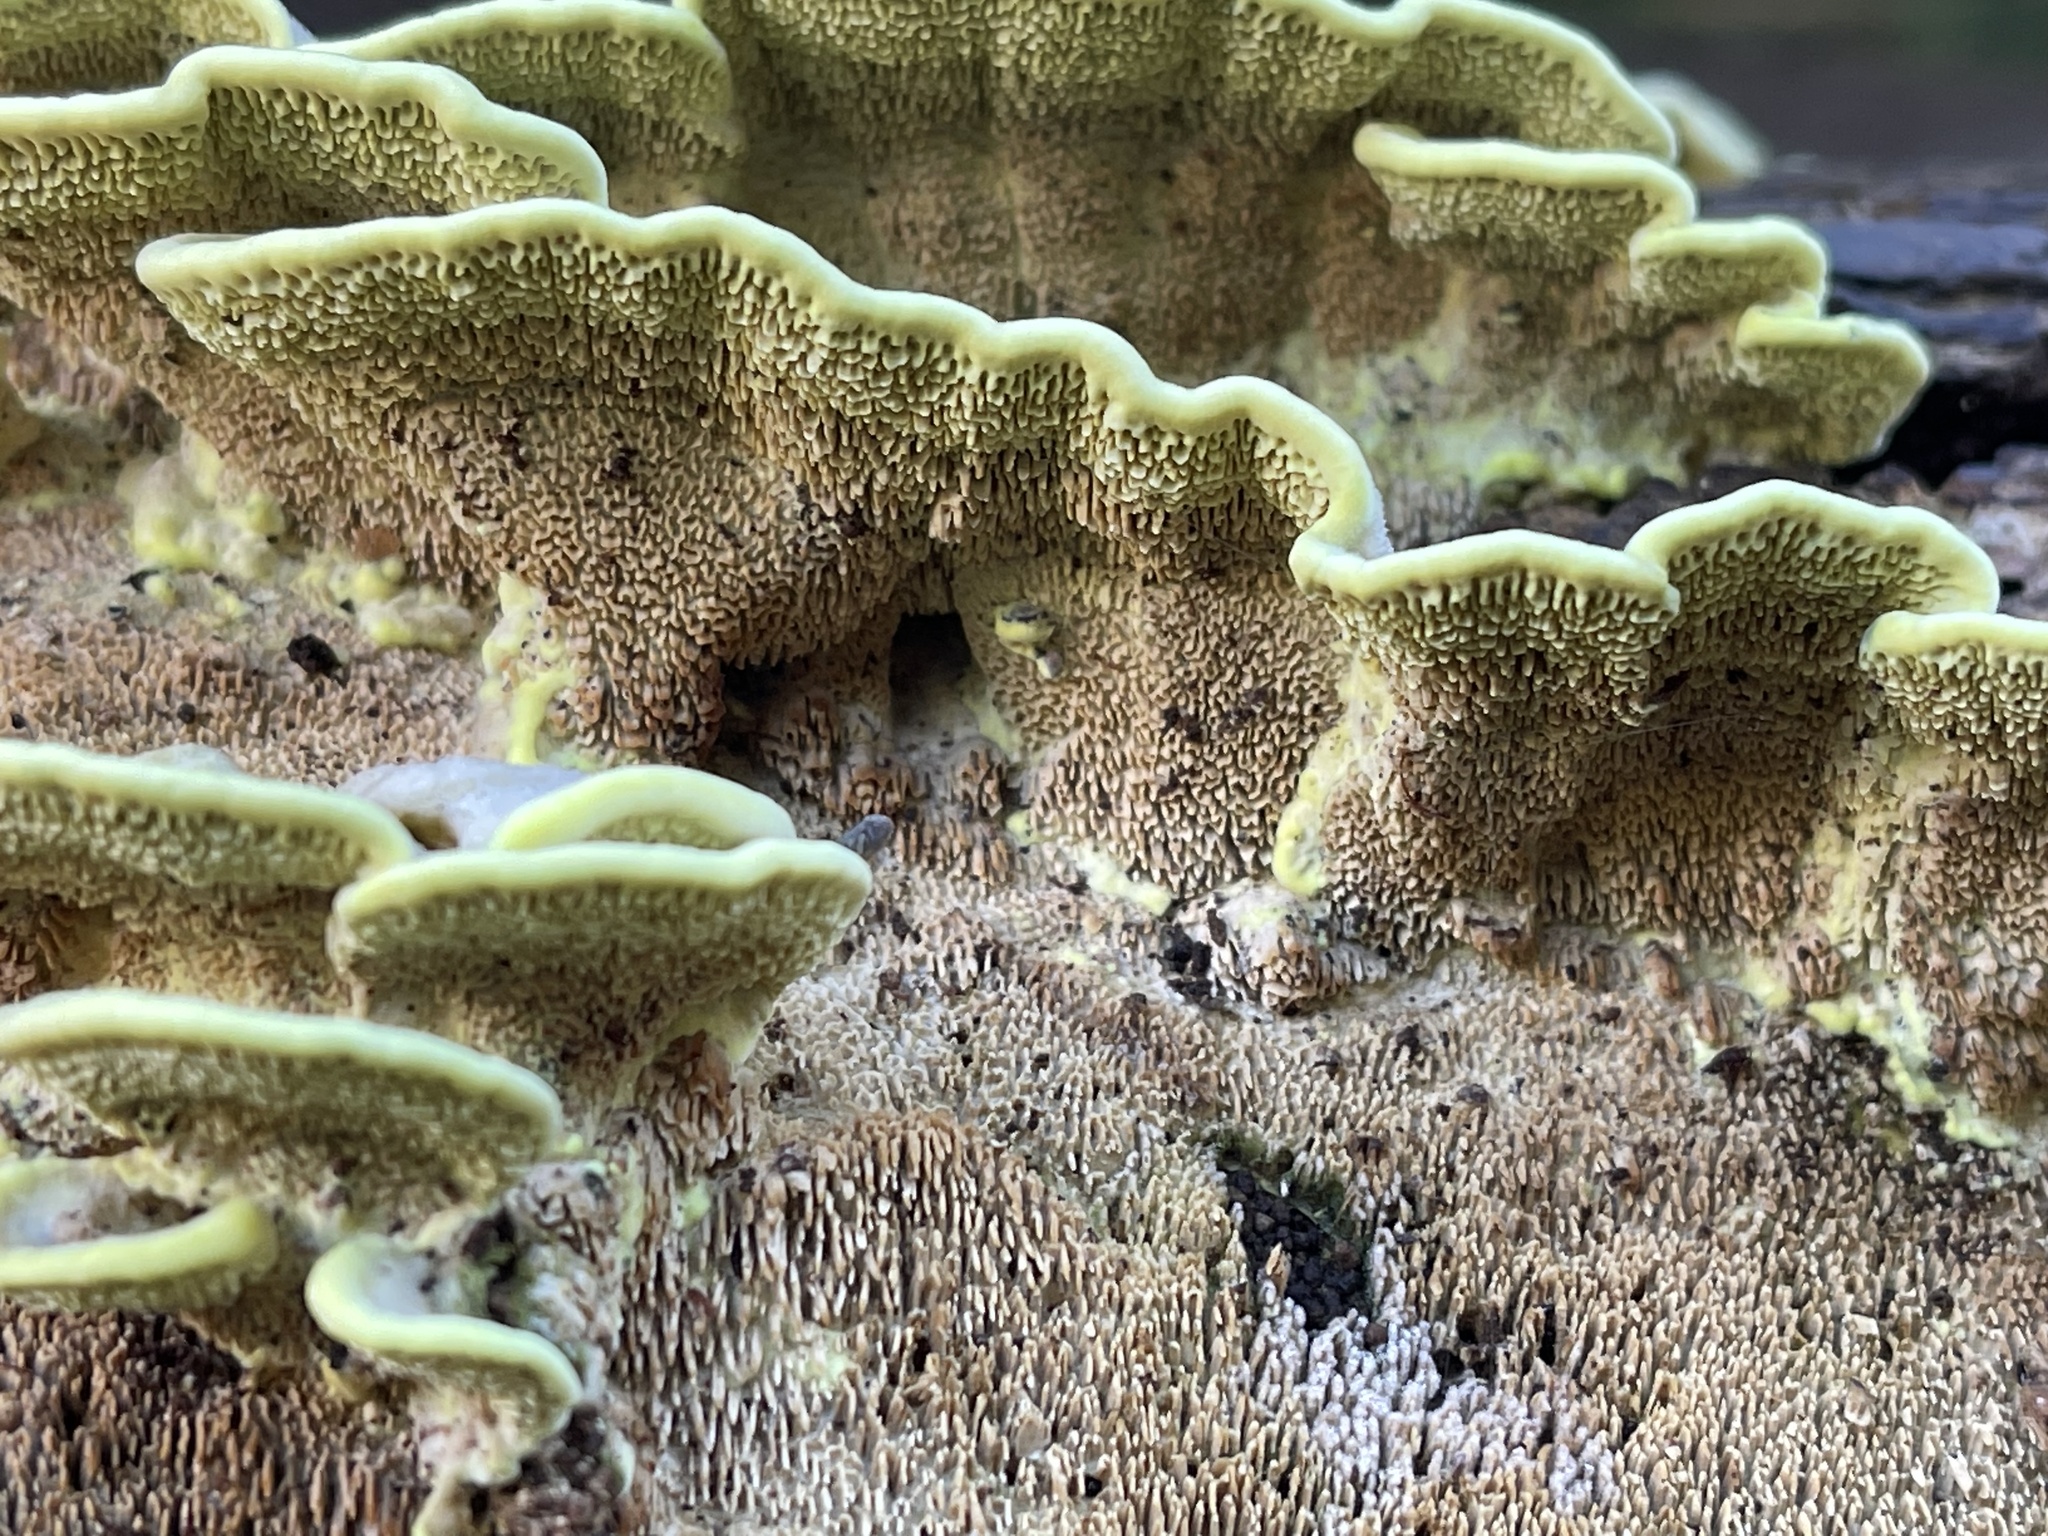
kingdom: Fungi
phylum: Basidiomycota
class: Agaricomycetes
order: Polyporales
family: Irpicaceae
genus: Flavodon
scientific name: Flavodon flavus
